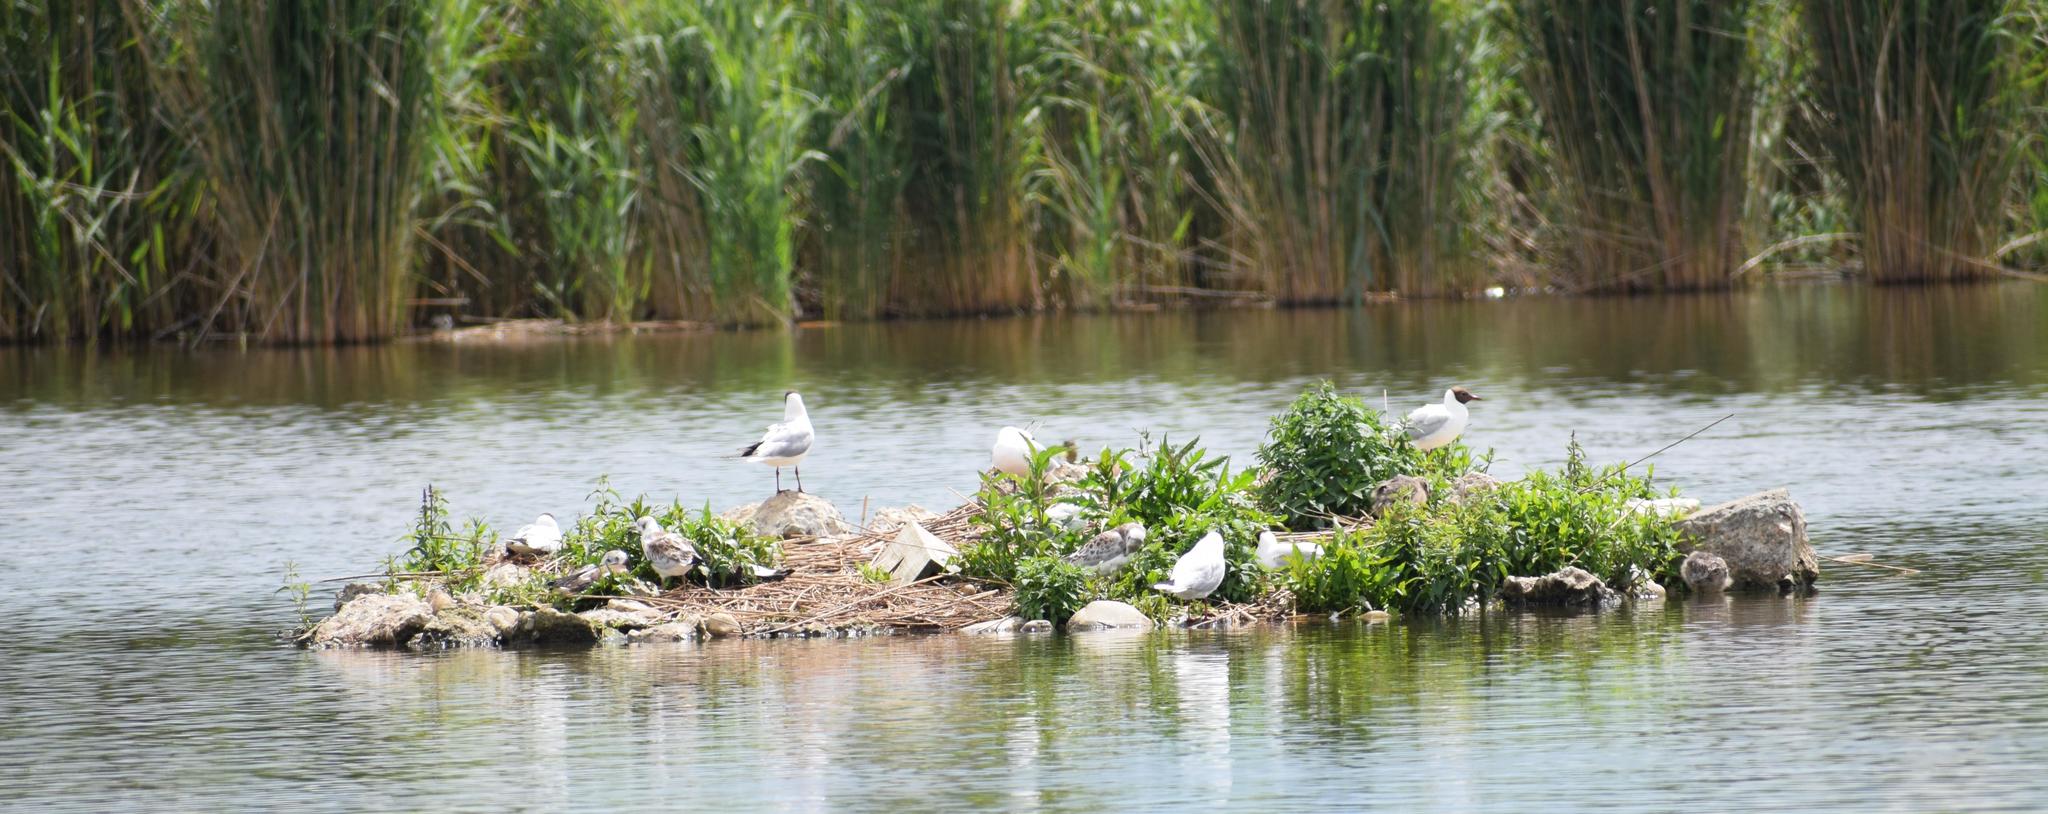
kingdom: Animalia
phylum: Chordata
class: Aves
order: Charadriiformes
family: Laridae
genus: Chroicocephalus
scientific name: Chroicocephalus ridibundus
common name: Black-headed gull
